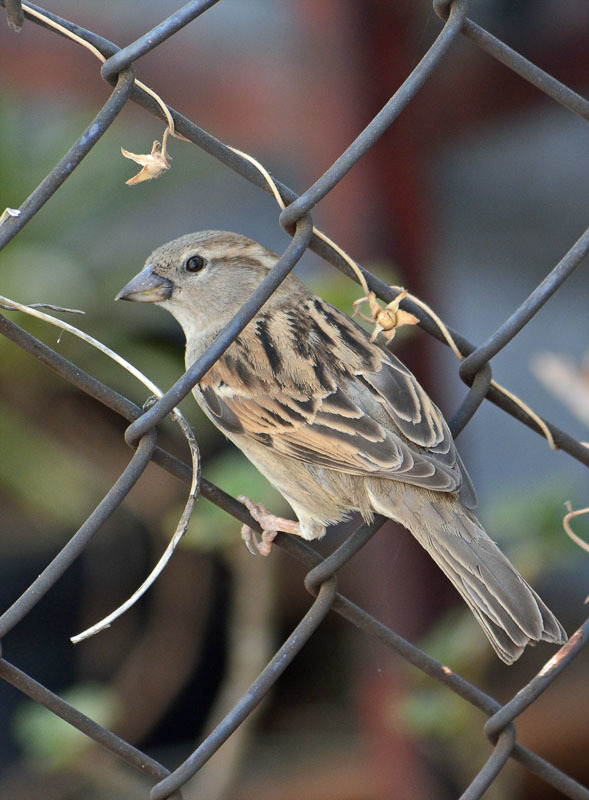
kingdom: Animalia
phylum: Chordata
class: Aves
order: Passeriformes
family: Passeridae
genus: Passer
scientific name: Passer domesticus
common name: House sparrow
